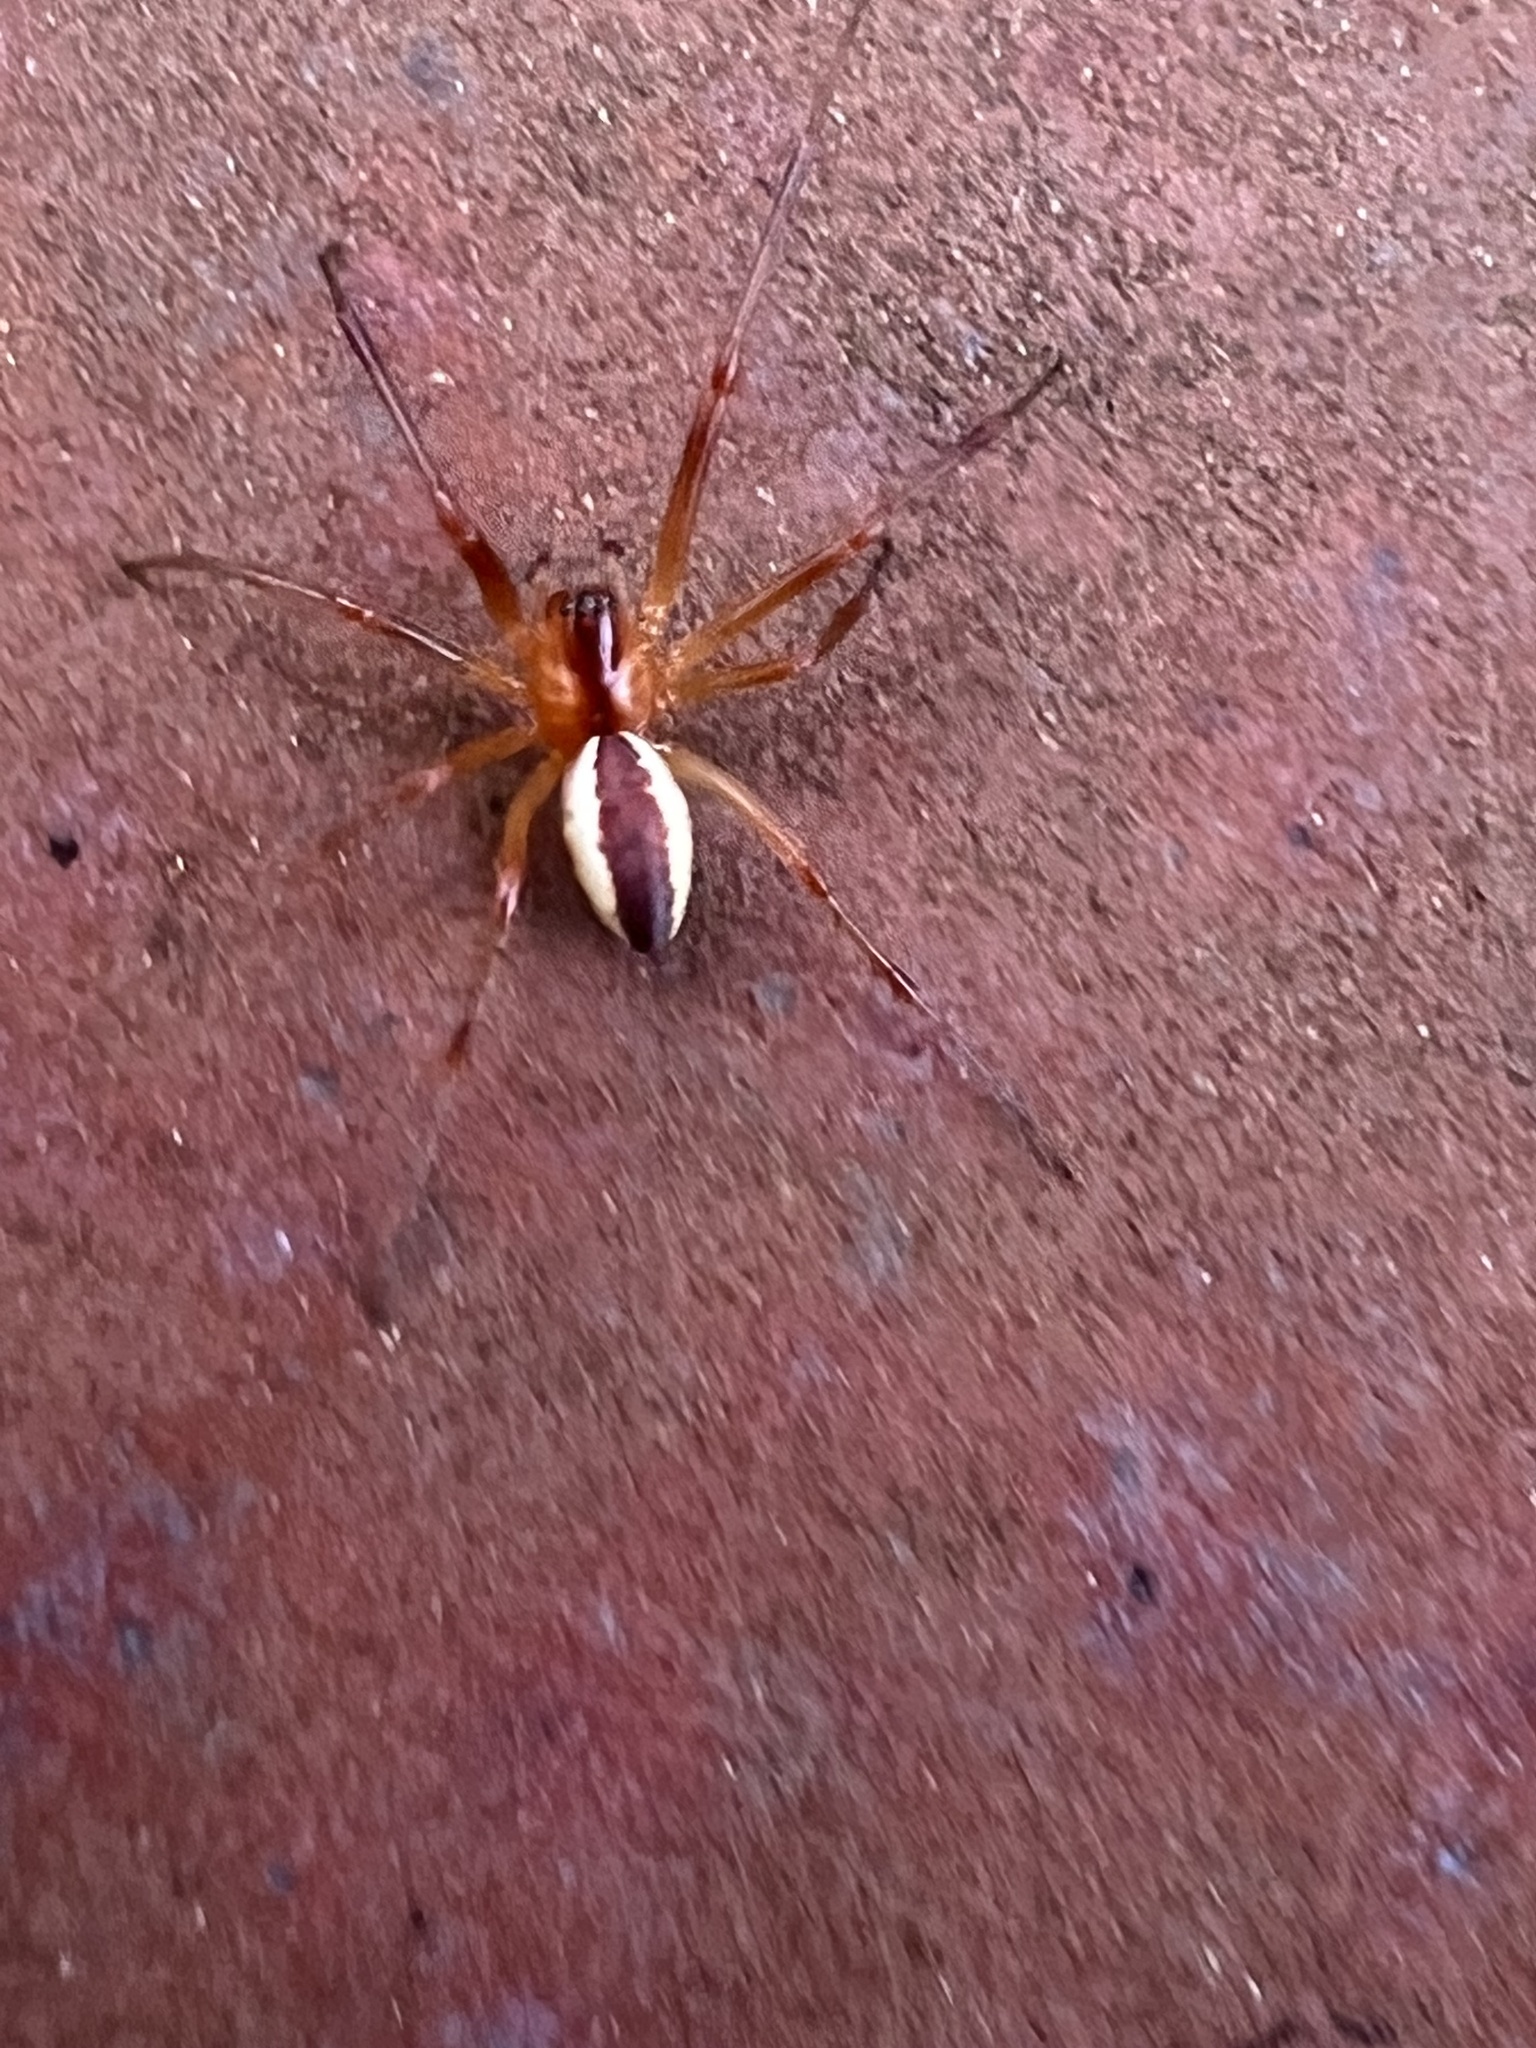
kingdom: Animalia
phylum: Arthropoda
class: Arachnida
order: Araneae
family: Linyphiidae
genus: Pityohyphantes
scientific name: Pityohyphantes rubrofasciatus
